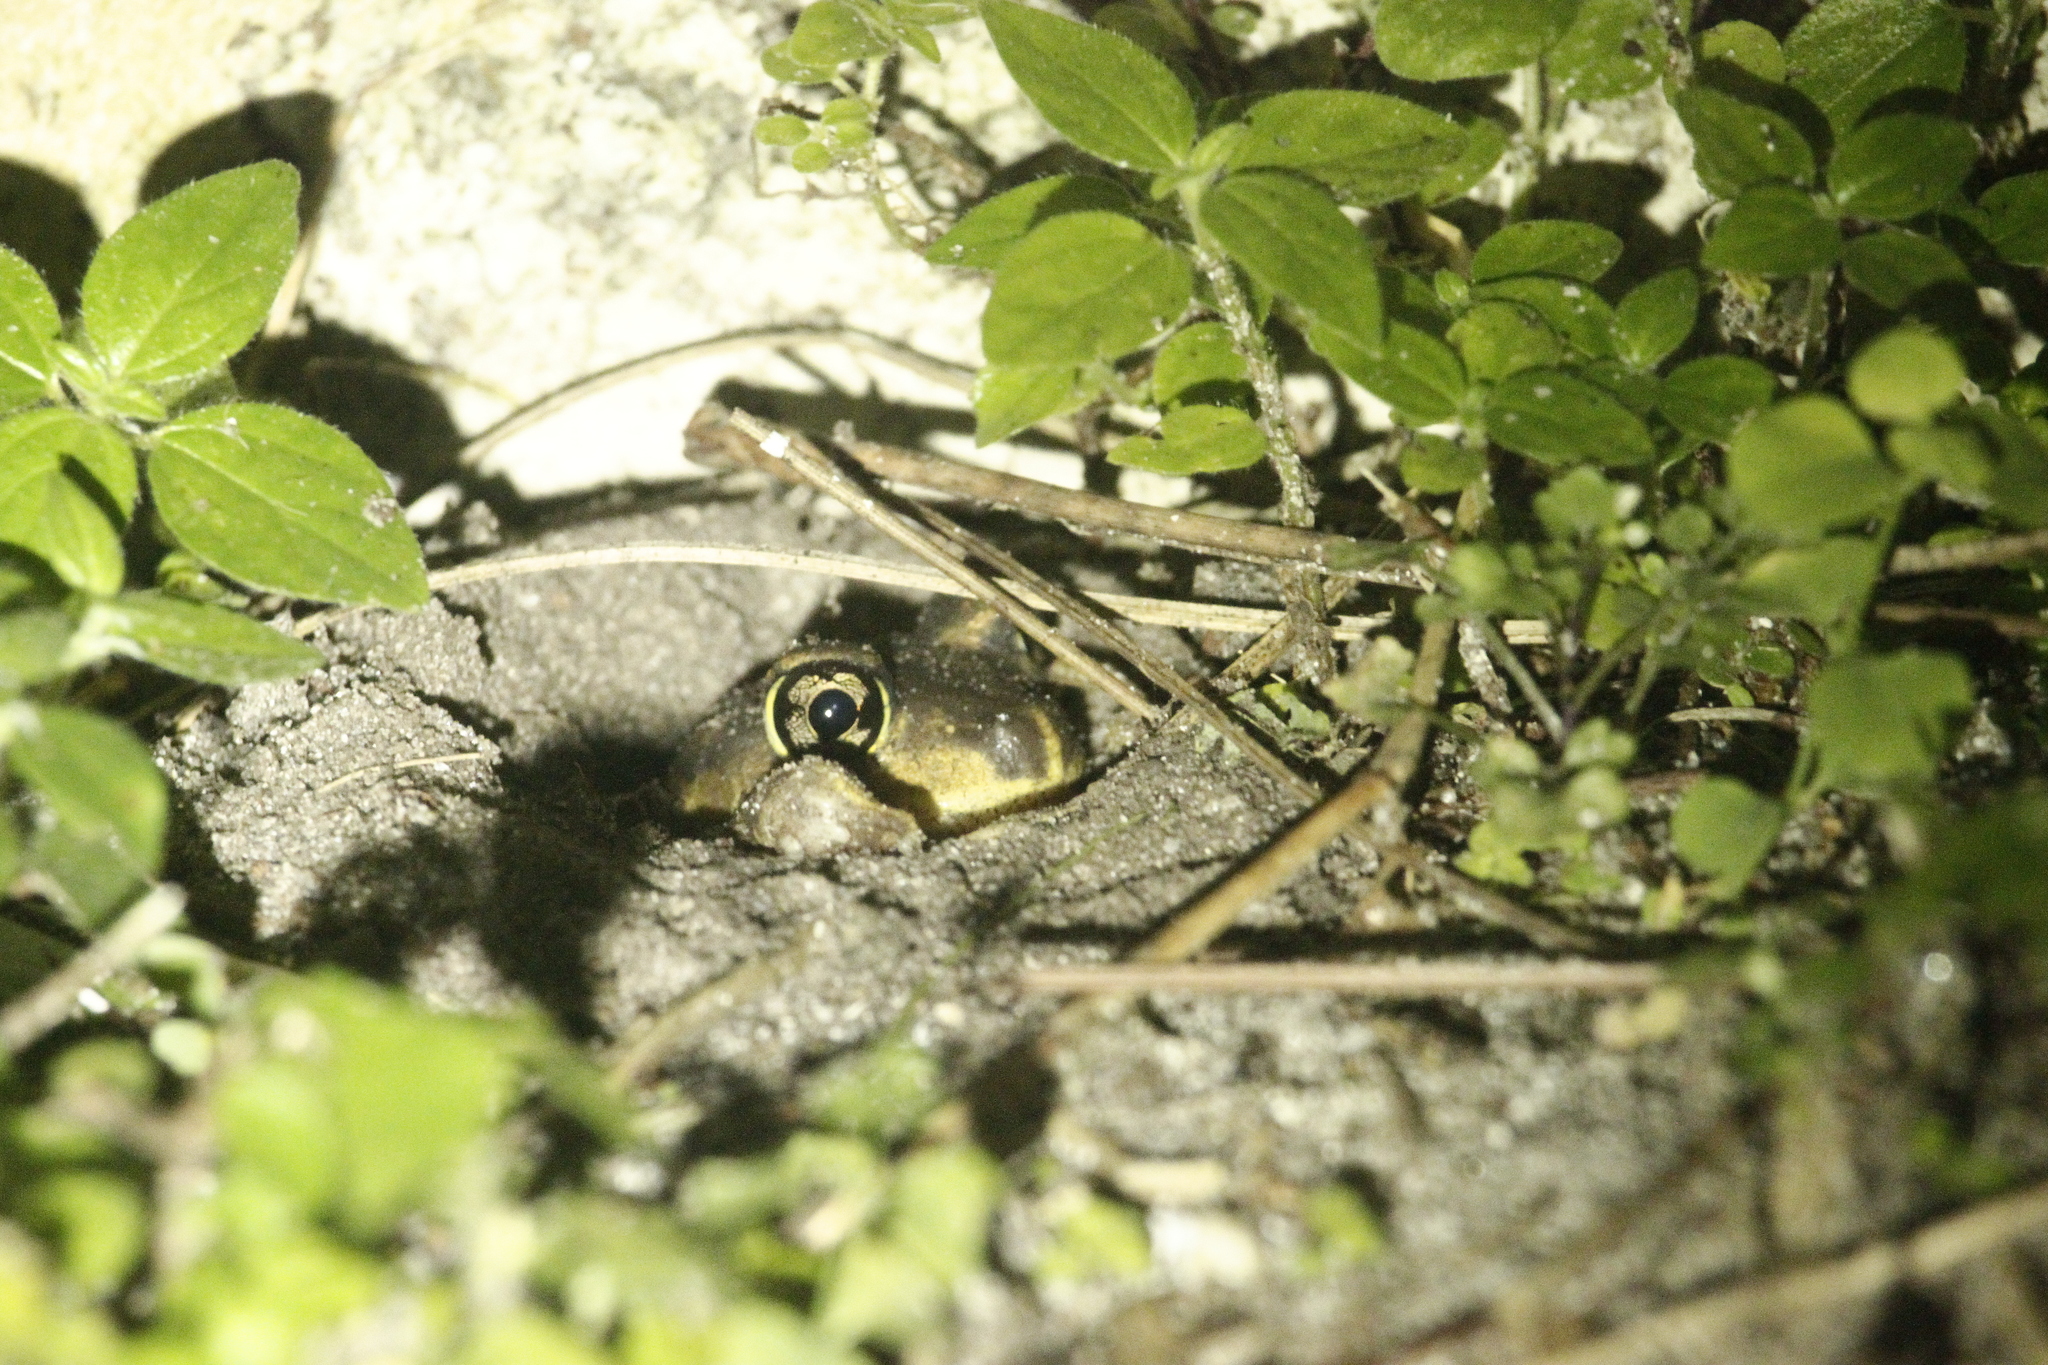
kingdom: Animalia
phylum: Chordata
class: Amphibia
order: Anura
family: Scaphiopodidae
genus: Scaphiopus
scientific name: Scaphiopus holbrookii
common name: Eastern spadefoot toad
